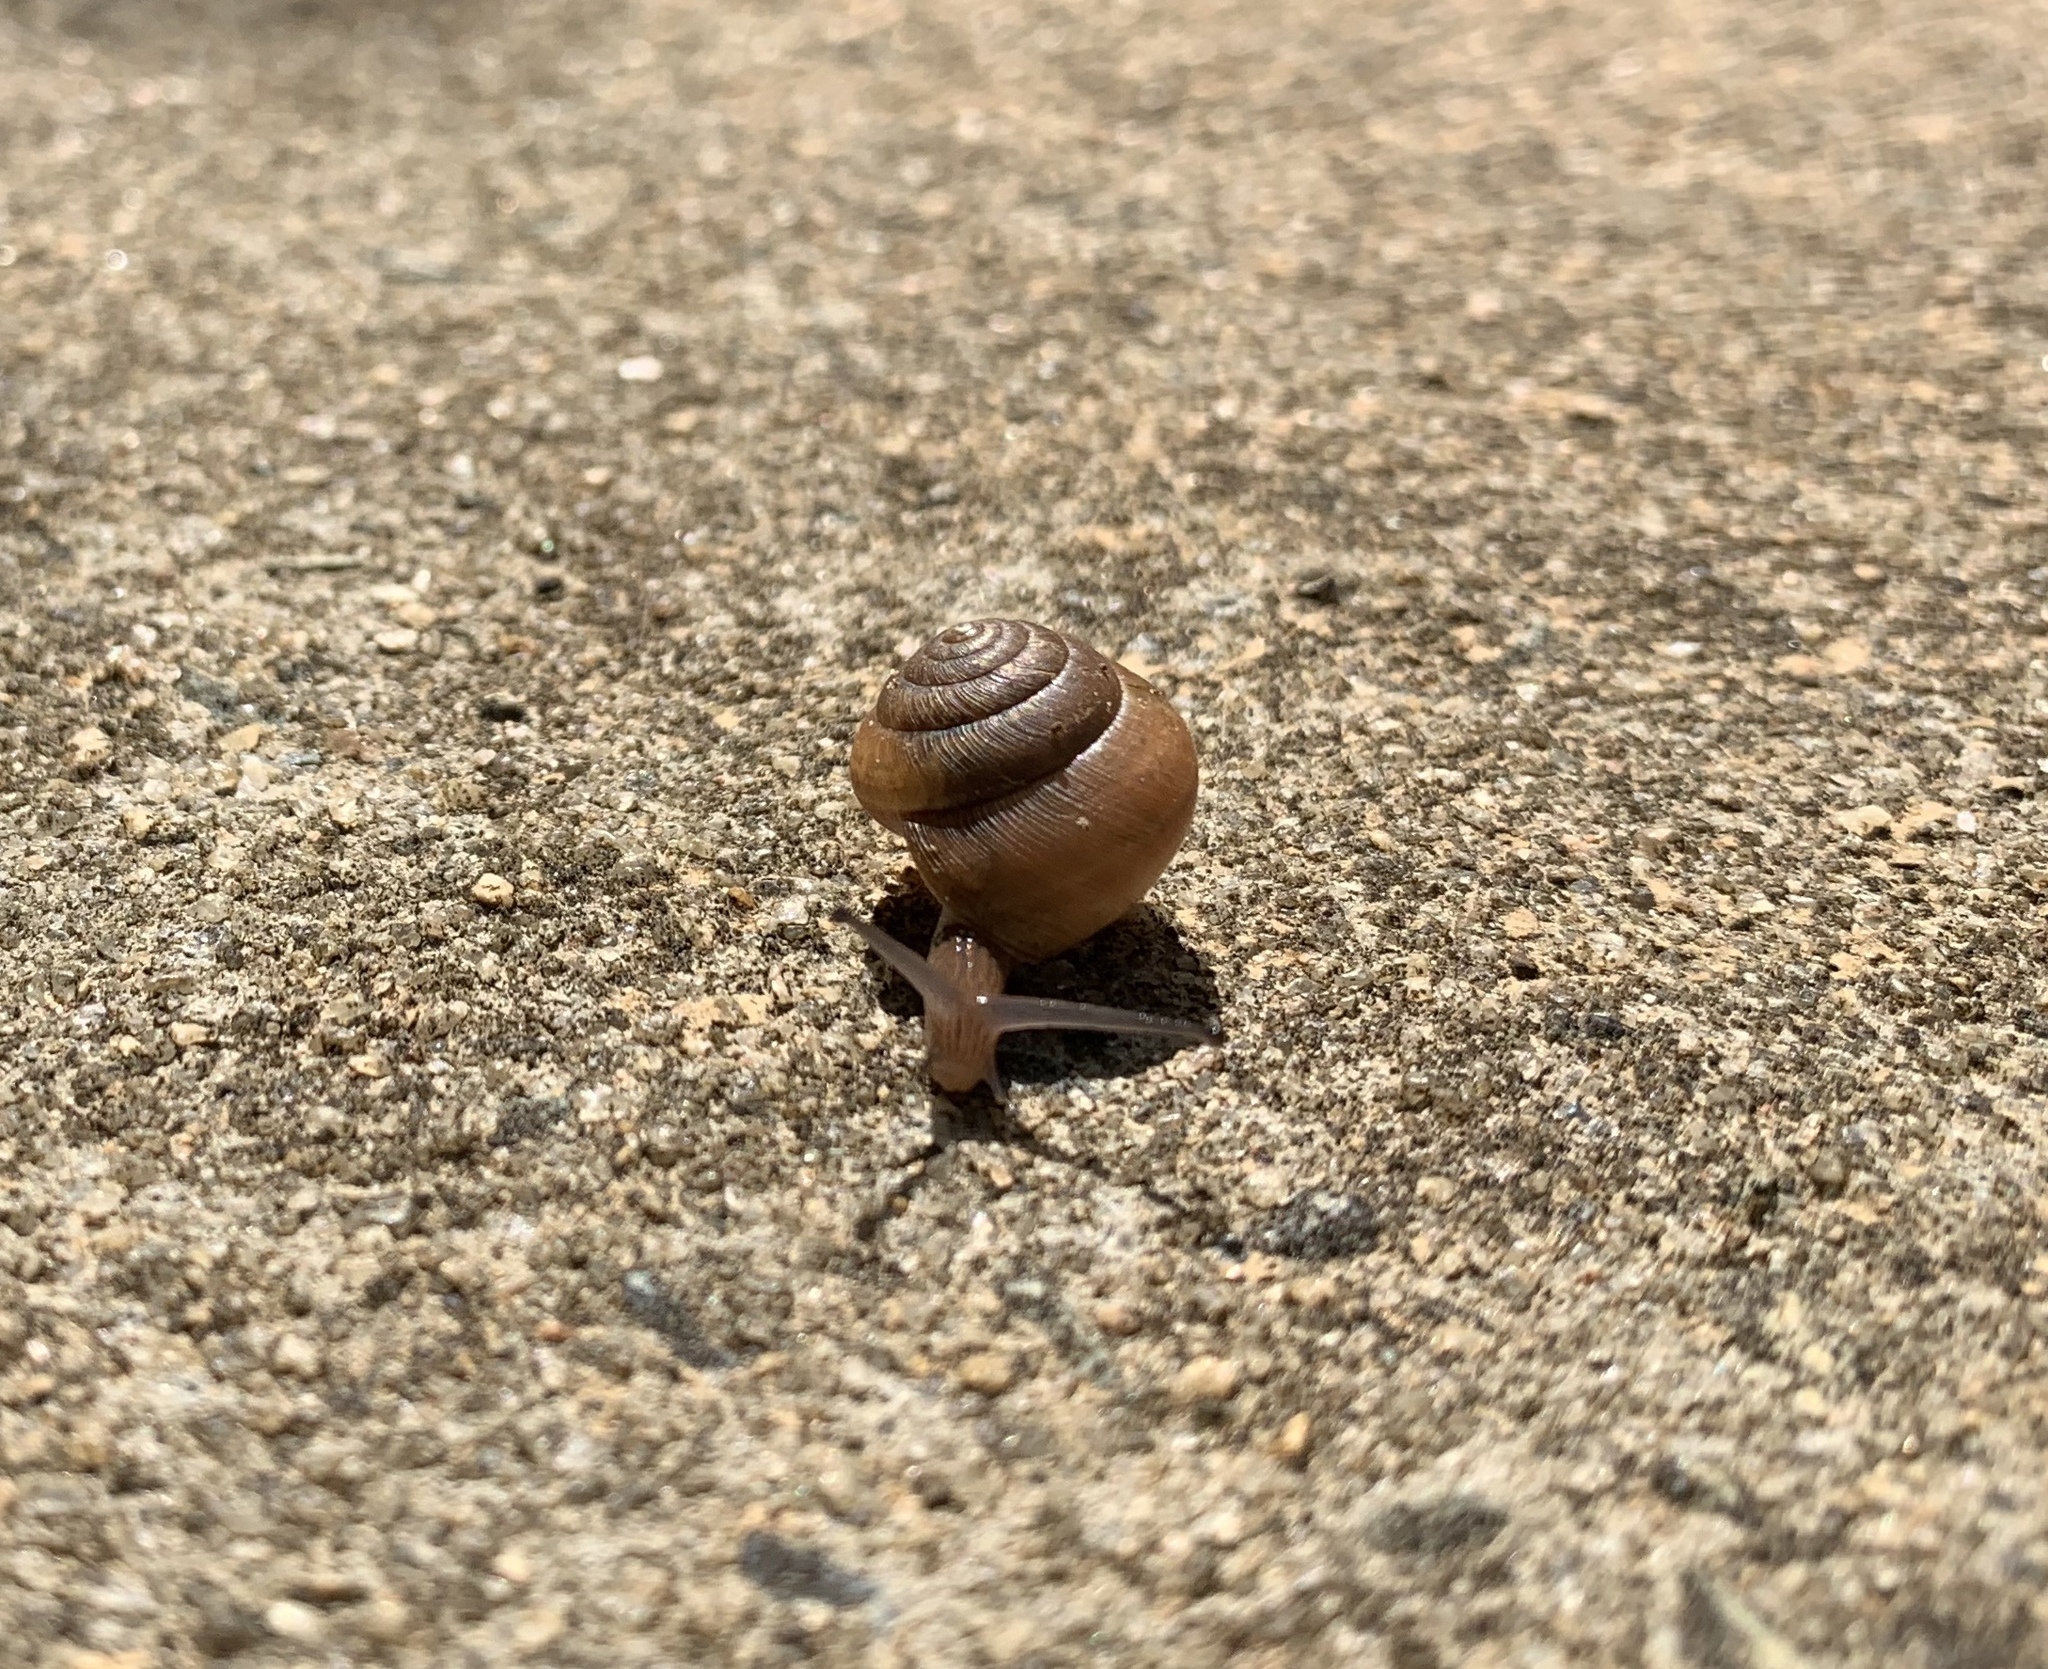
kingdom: Animalia
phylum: Mollusca
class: Gastropoda
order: Stylommatophora
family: Gastrodontidae
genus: Ventridens
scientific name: Ventridens intertextus
